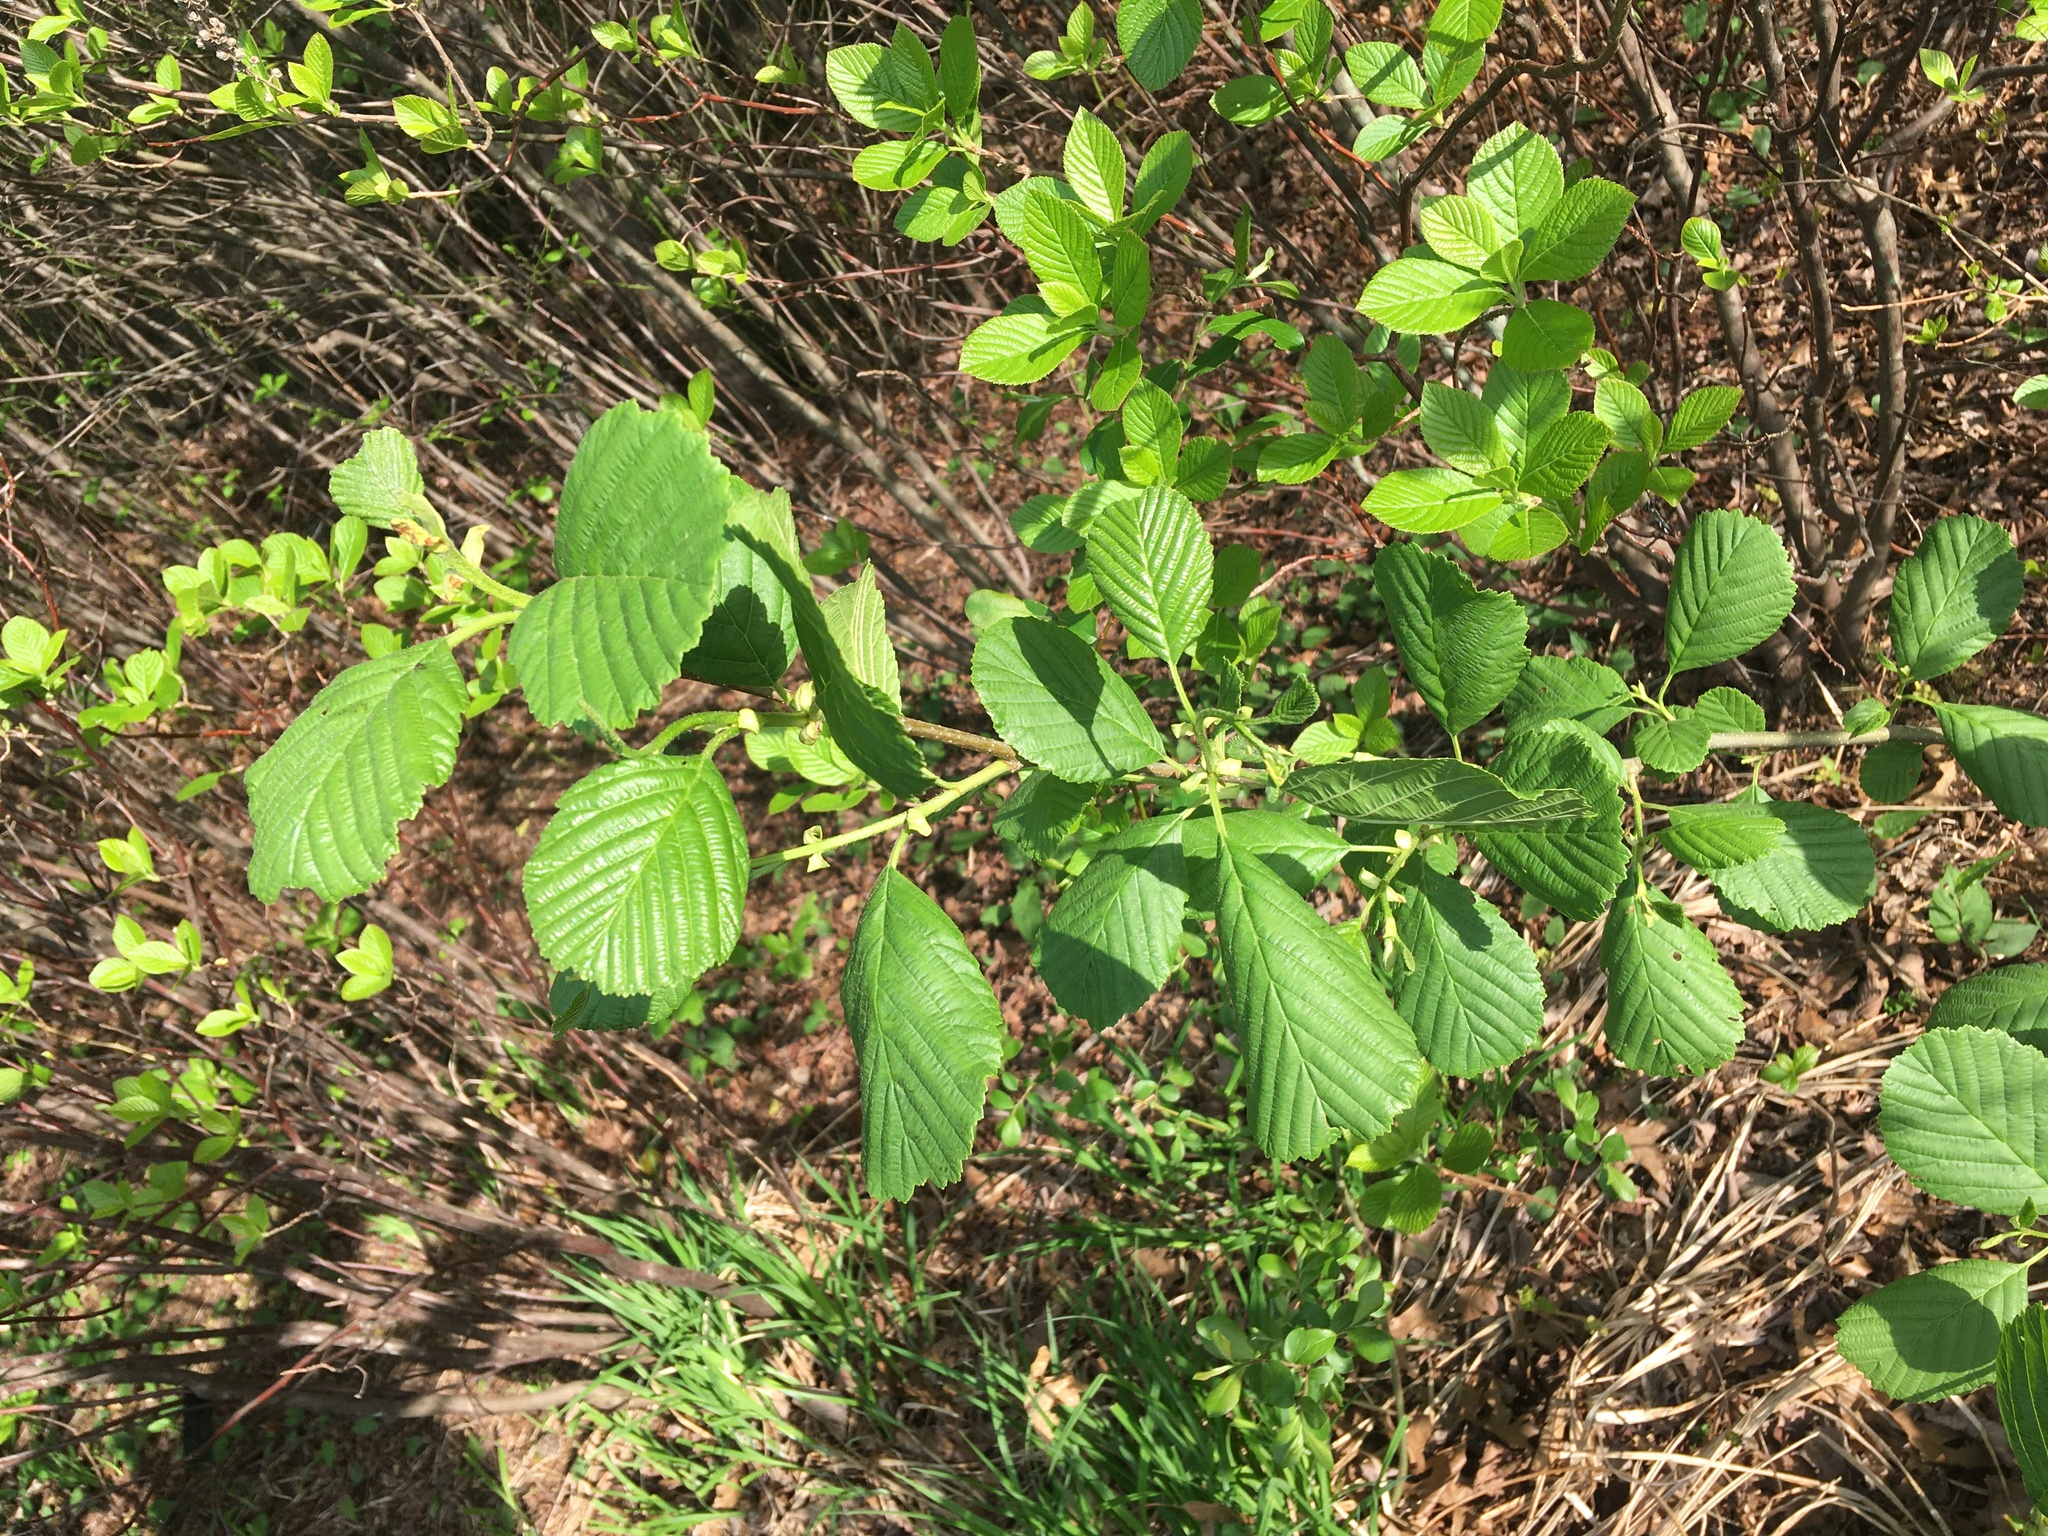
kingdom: Plantae
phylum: Tracheophyta
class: Magnoliopsida
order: Fagales
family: Betulaceae
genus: Alnus
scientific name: Alnus glutinosa
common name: Black alder
